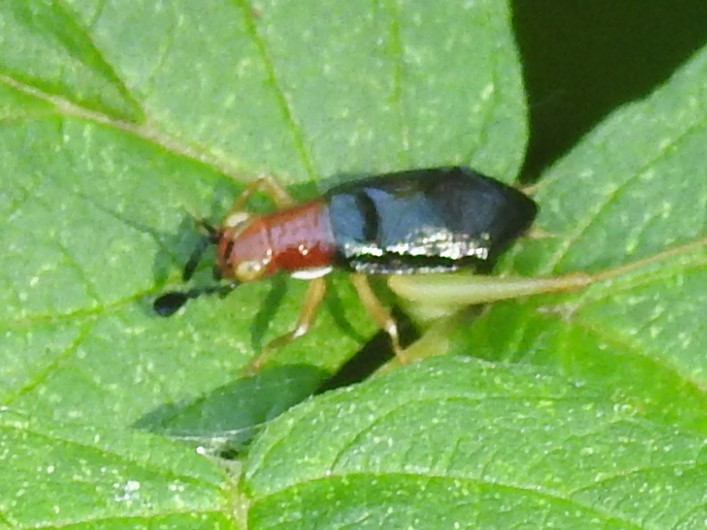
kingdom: Animalia
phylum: Arthropoda
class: Insecta
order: Orthoptera
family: Trigonidiidae
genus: Phyllopalpus
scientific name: Phyllopalpus pulchellus
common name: Handsome trig
